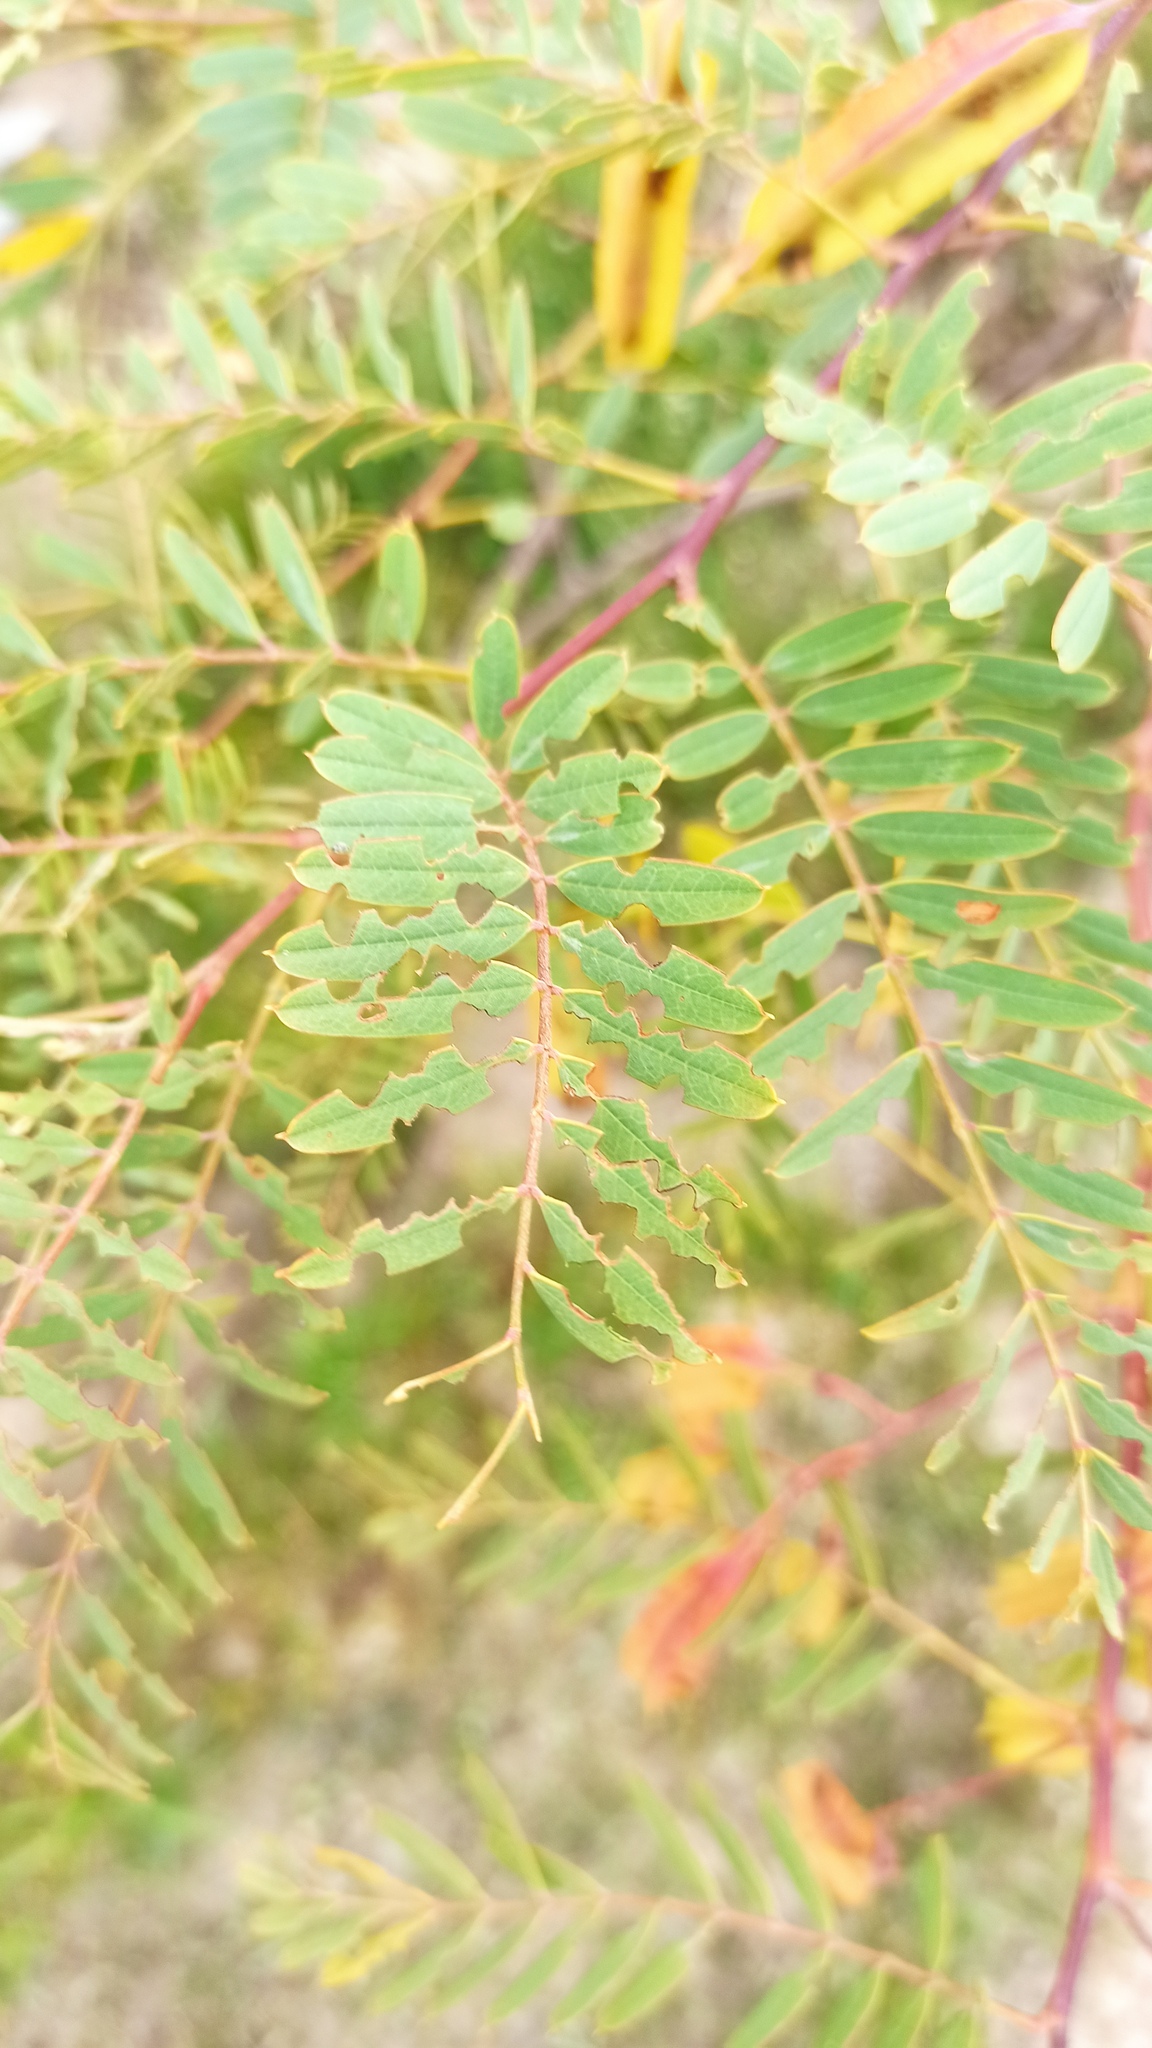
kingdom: Plantae
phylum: Tracheophyta
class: Magnoliopsida
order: Fabales
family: Fabaceae
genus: Sesbania
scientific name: Sesbania punicea
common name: Rattlebox
